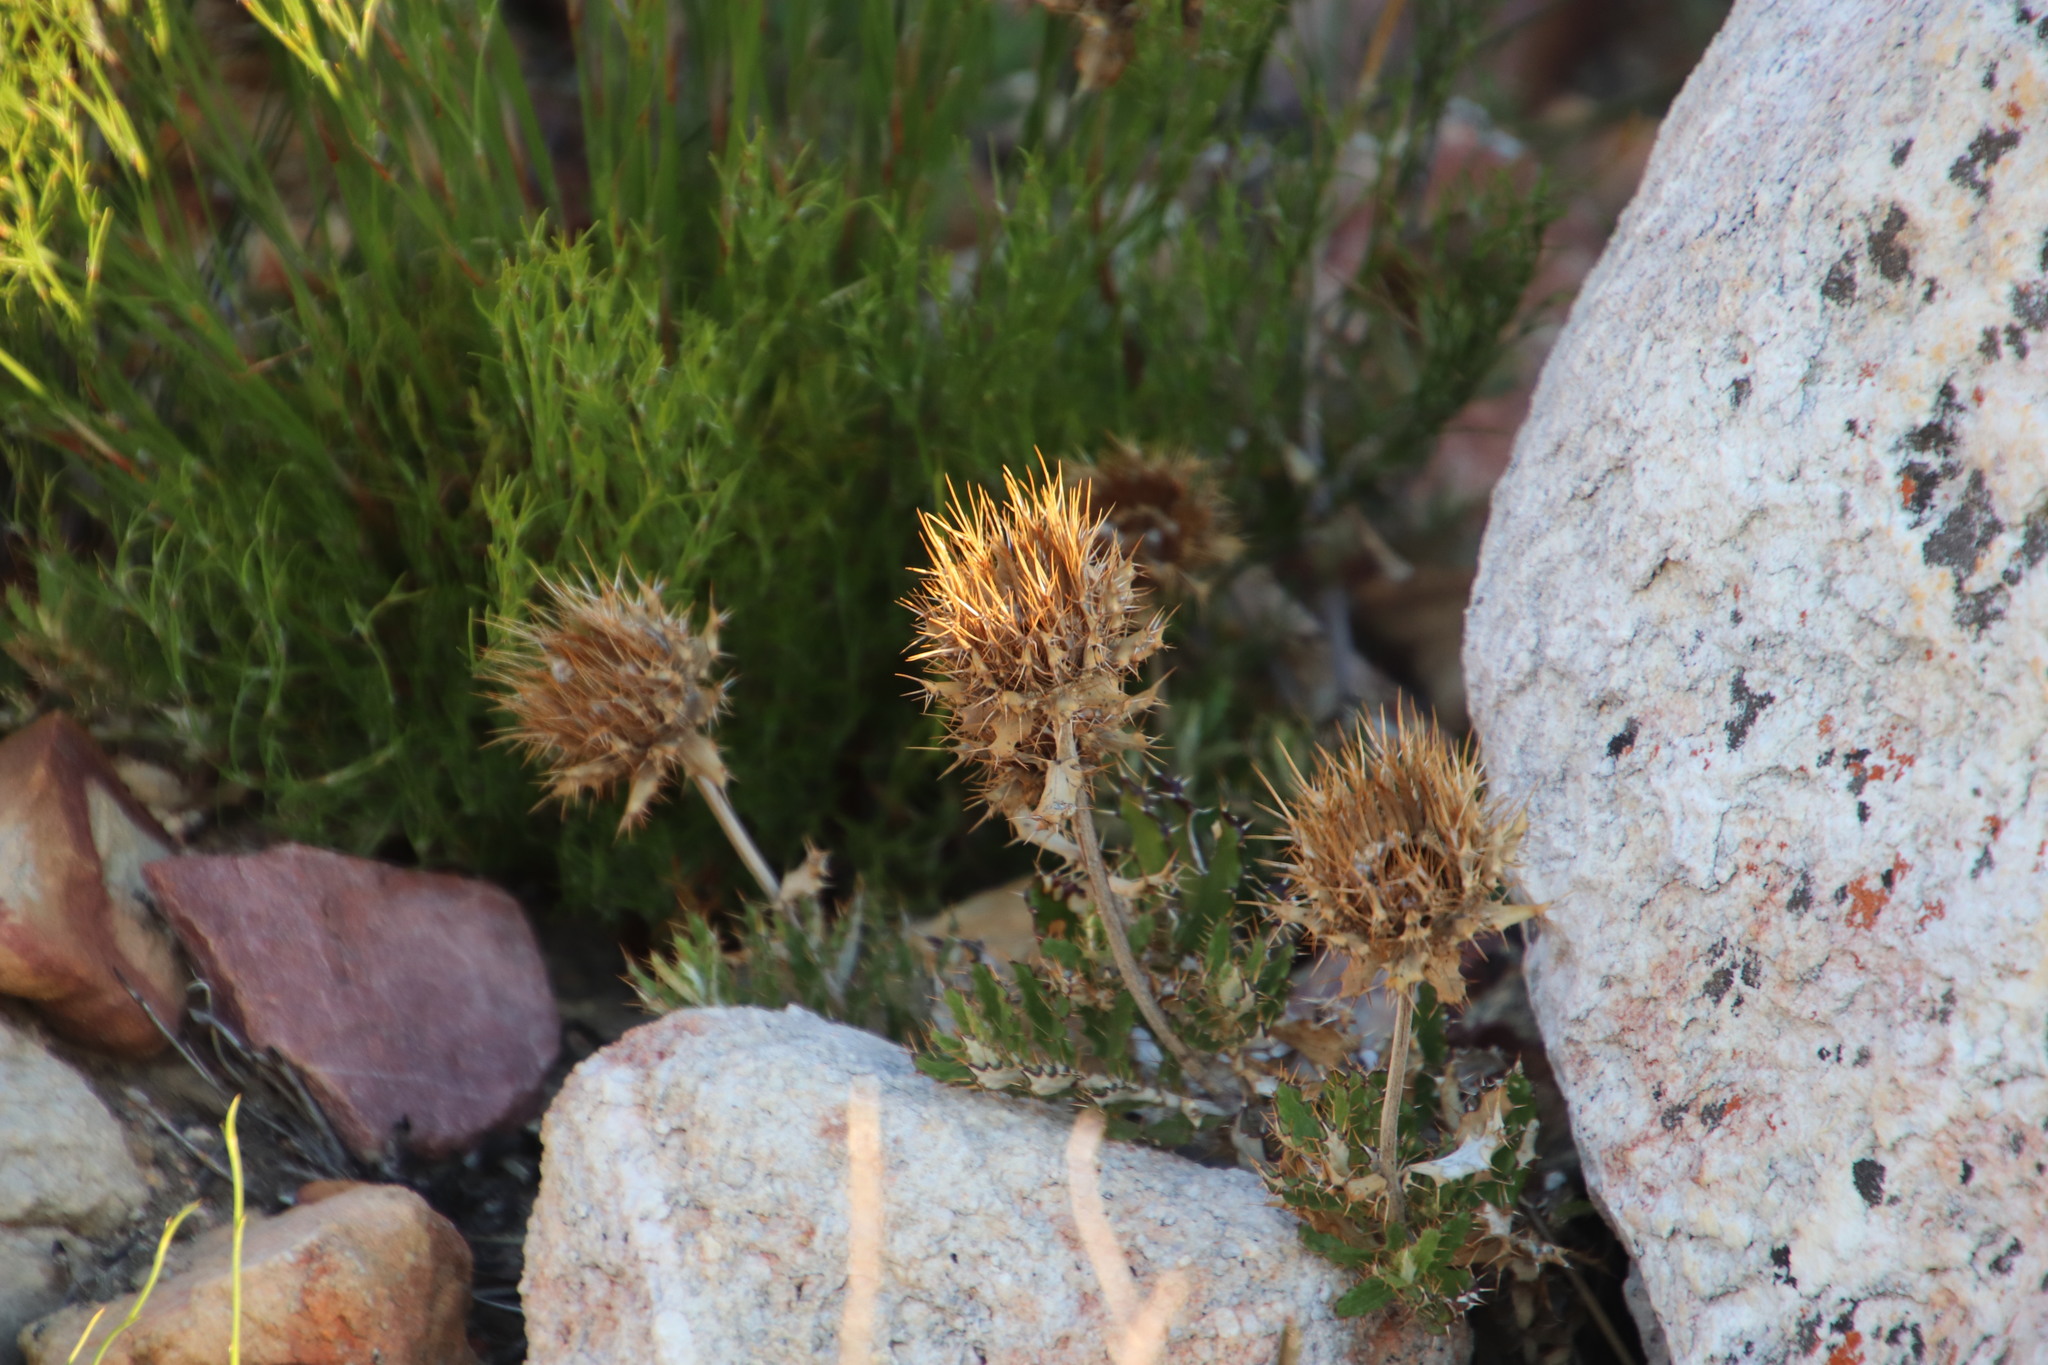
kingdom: Plantae
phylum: Tracheophyta
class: Magnoliopsida
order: Asterales
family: Asteraceae
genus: Berkheya
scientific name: Berkheya barbata
